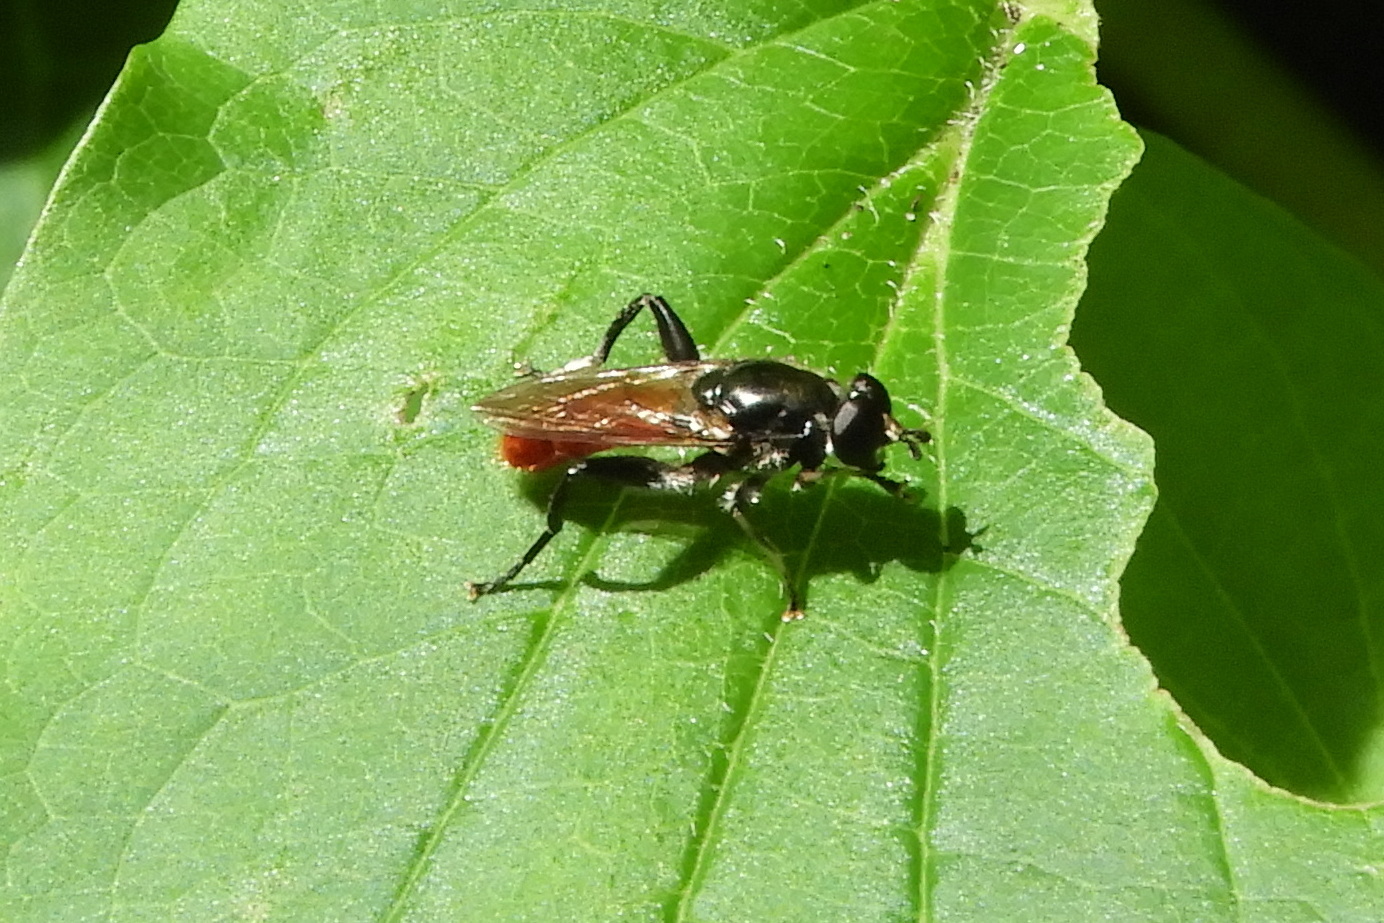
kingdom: Animalia
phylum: Arthropoda
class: Insecta
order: Diptera
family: Syrphidae
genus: Brachypalpoides
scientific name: Brachypalpoides bicolor
